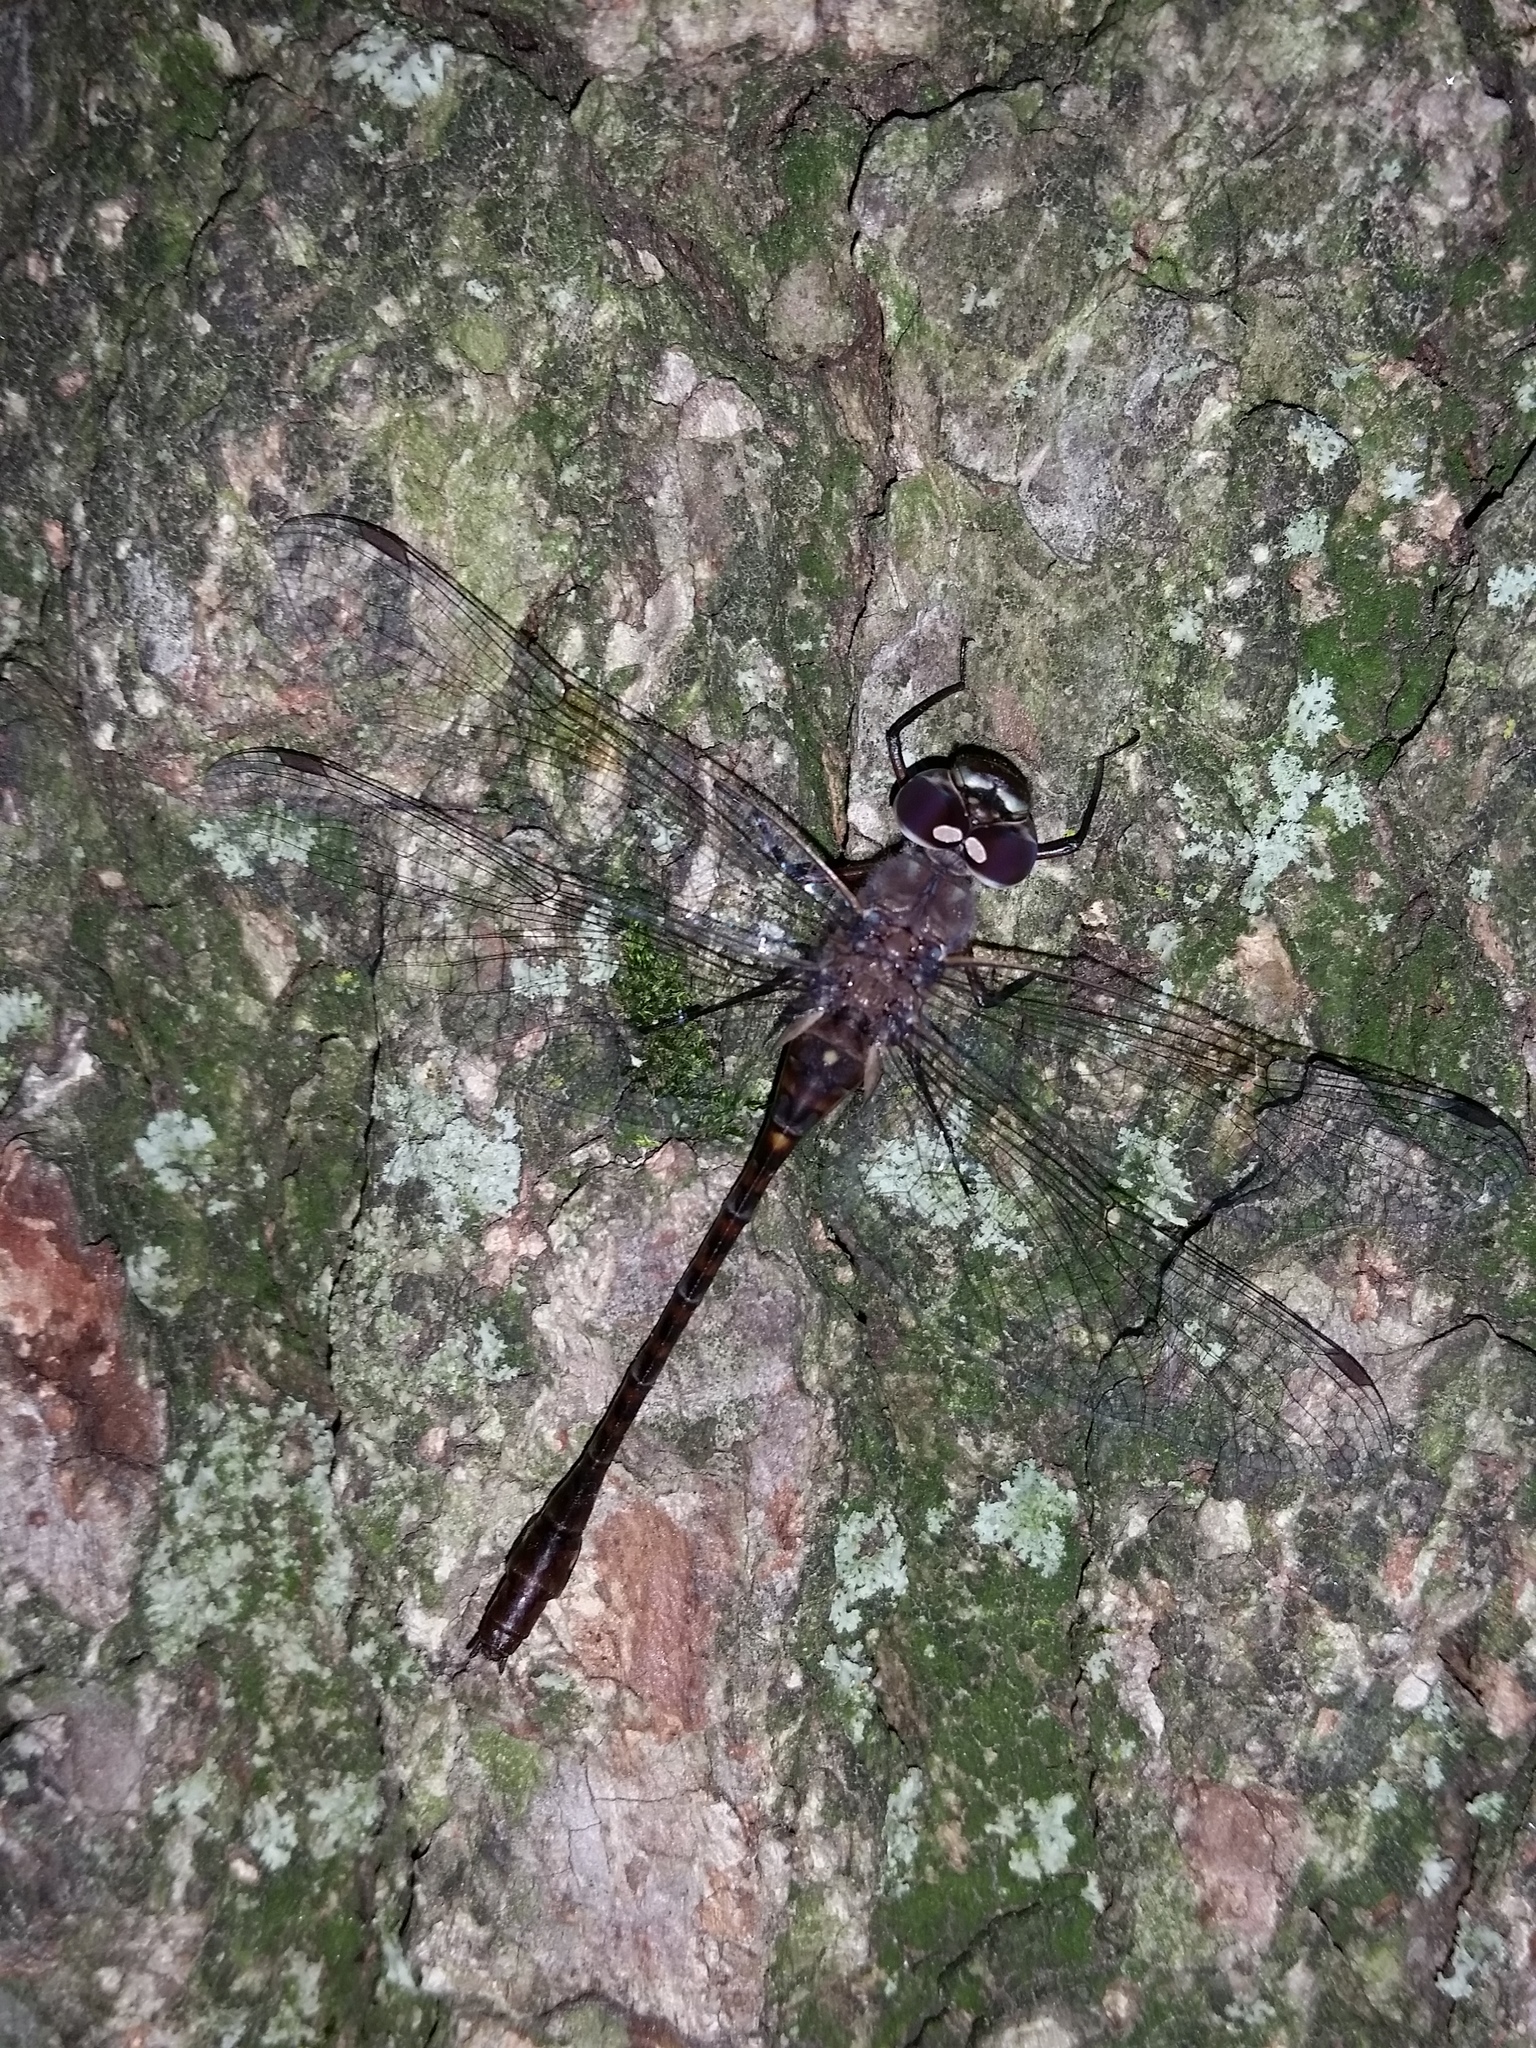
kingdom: Animalia
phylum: Arthropoda
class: Insecta
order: Odonata
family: Aeshnidae
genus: Gomphaeschna
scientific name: Gomphaeschna antilope
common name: Taper-tailed darner
